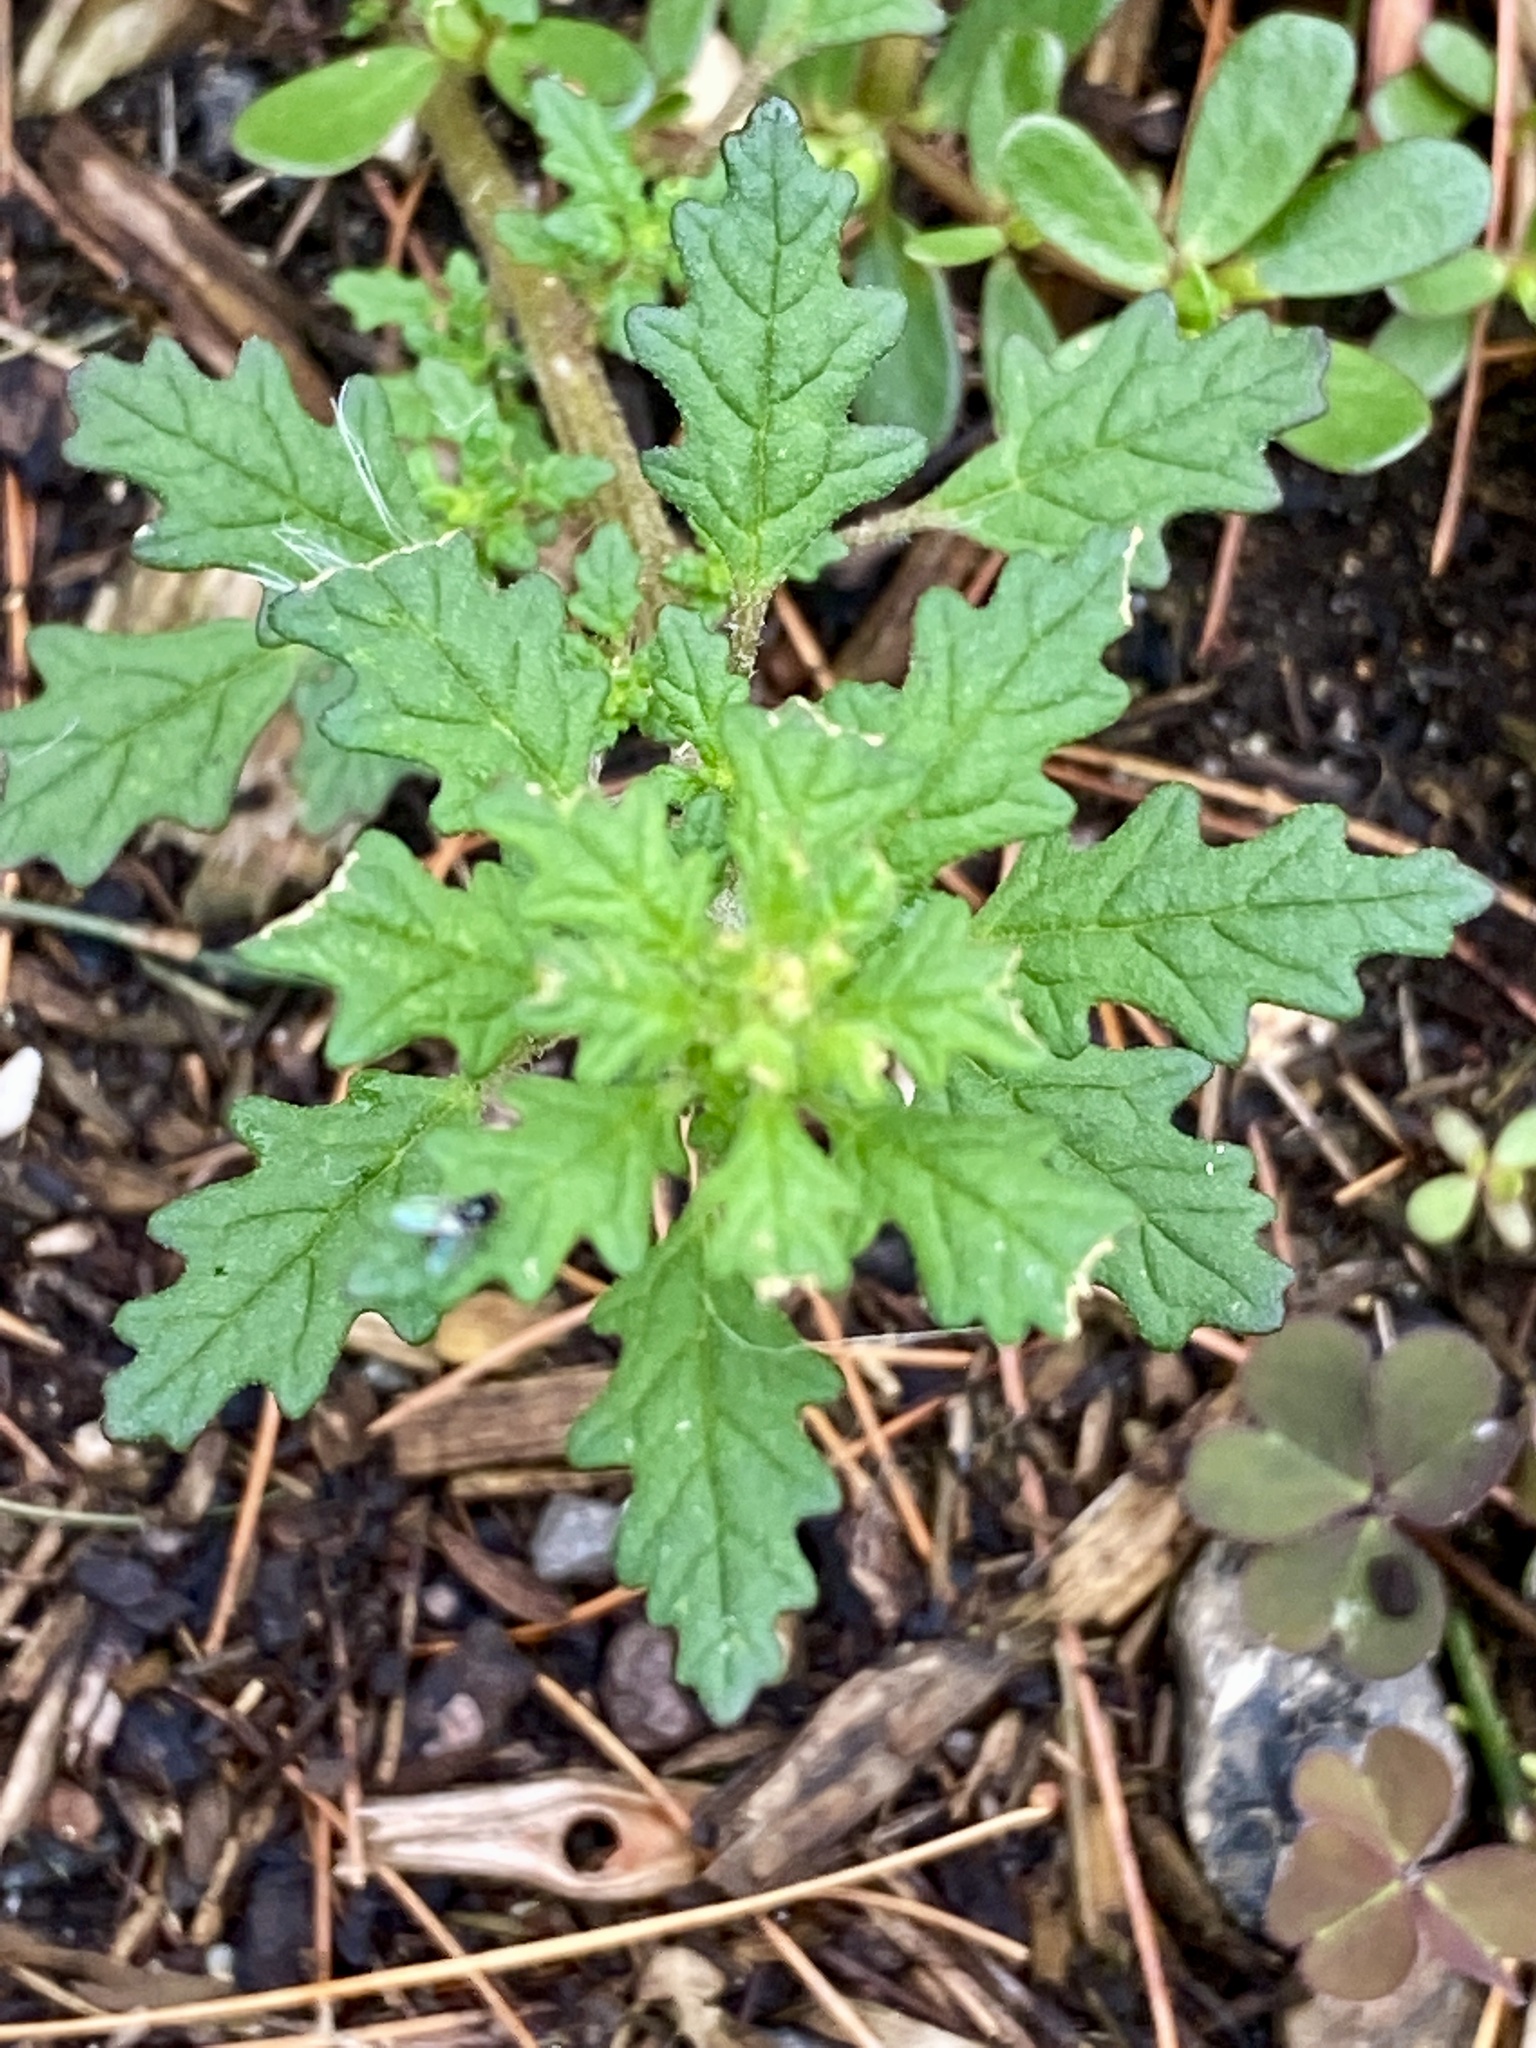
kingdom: Plantae
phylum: Tracheophyta
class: Magnoliopsida
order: Caryophyllales
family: Amaranthaceae
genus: Dysphania
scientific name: Dysphania pumilio
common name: Clammy goosefoot
